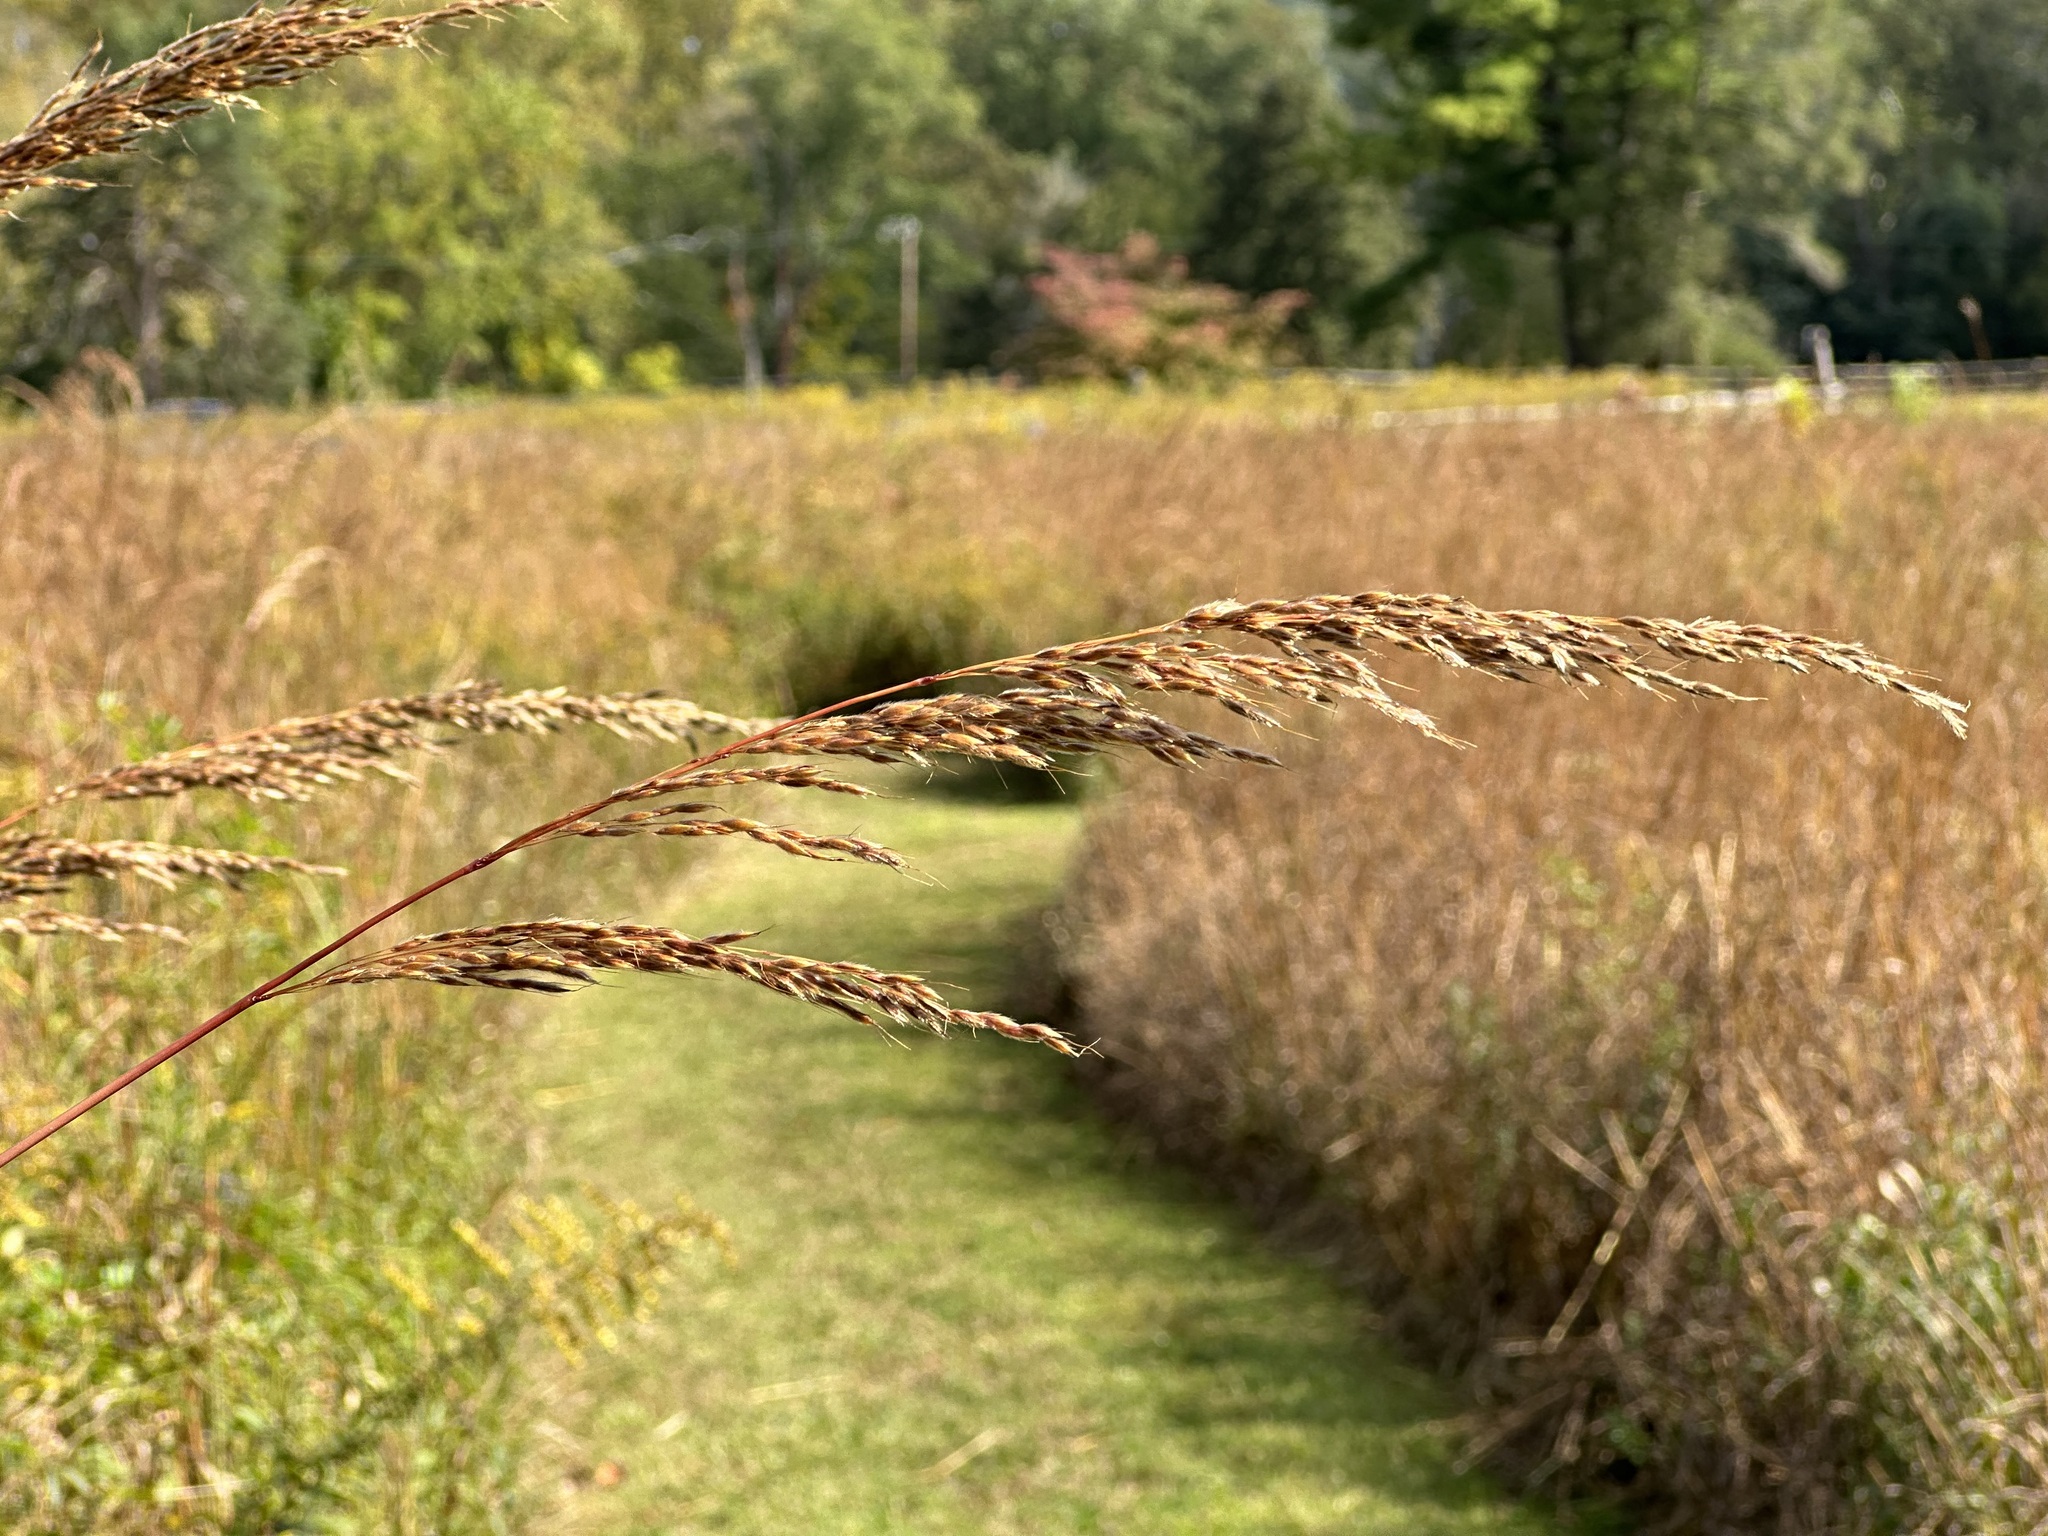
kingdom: Plantae
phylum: Tracheophyta
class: Liliopsida
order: Poales
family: Poaceae
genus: Sorghastrum
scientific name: Sorghastrum nutans
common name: Indian grass
